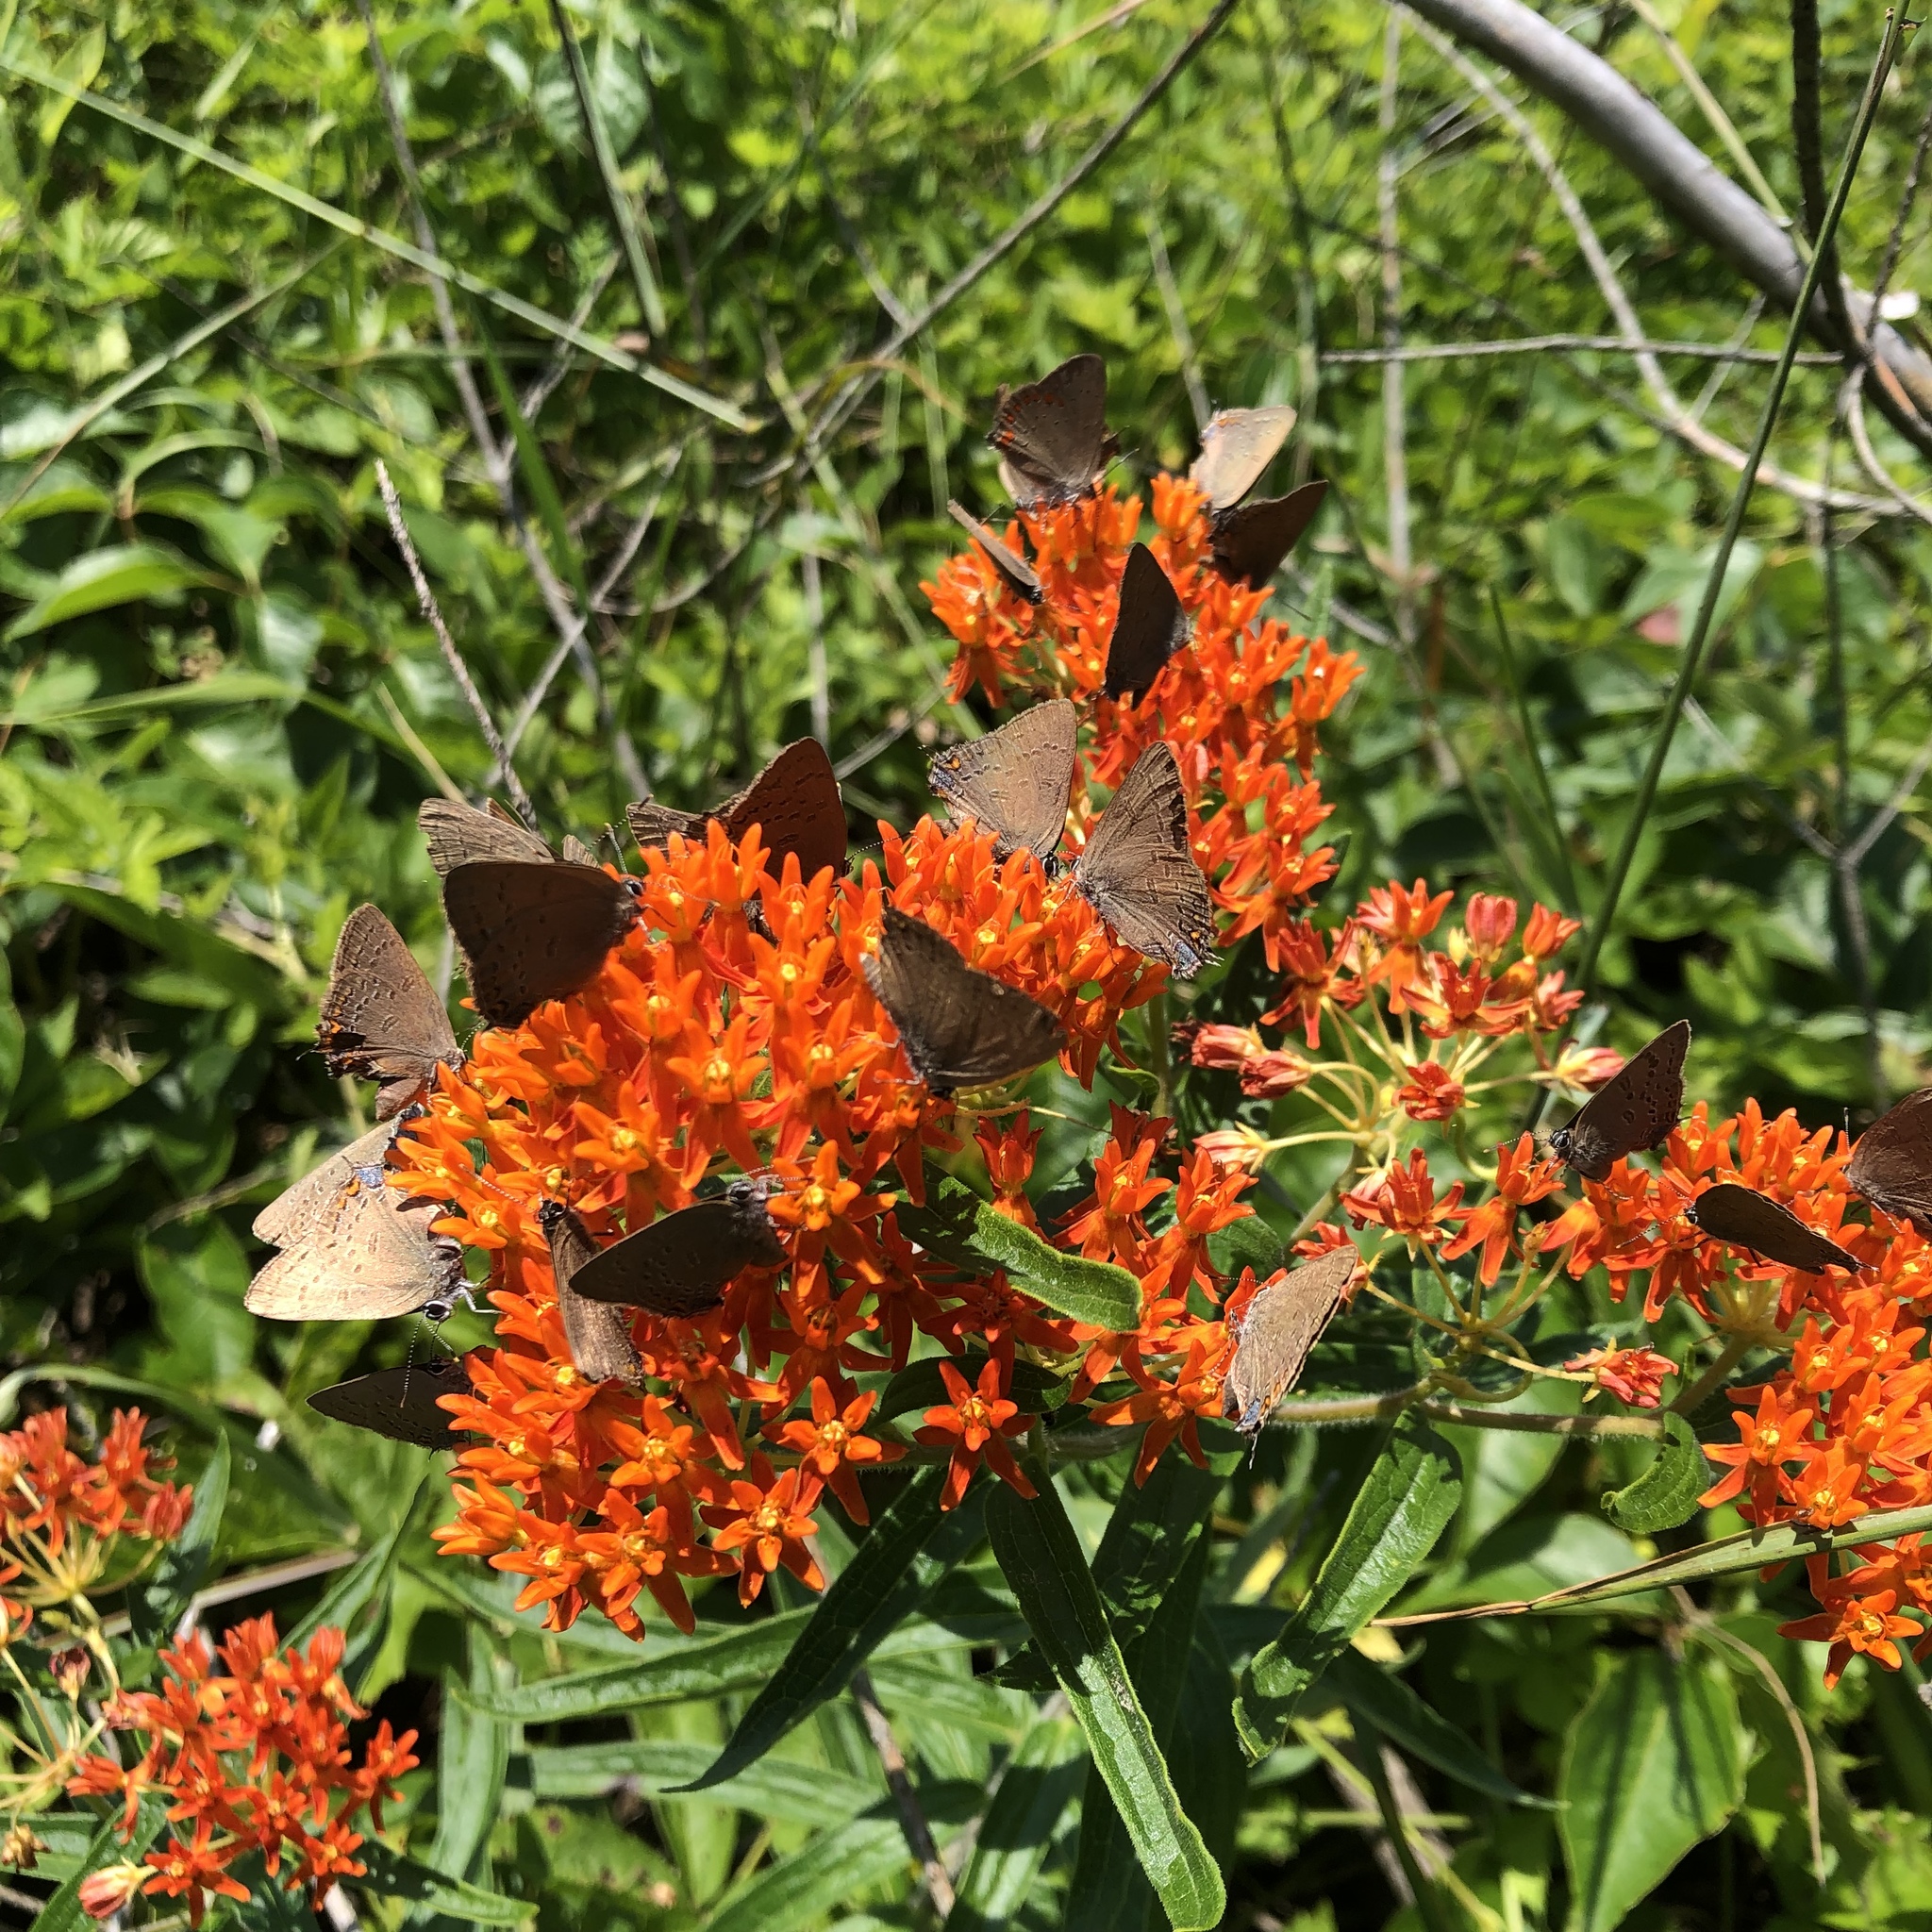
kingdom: Plantae
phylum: Tracheophyta
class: Magnoliopsida
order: Gentianales
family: Apocynaceae
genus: Asclepias
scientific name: Asclepias tuberosa
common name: Butterfly milkweed
